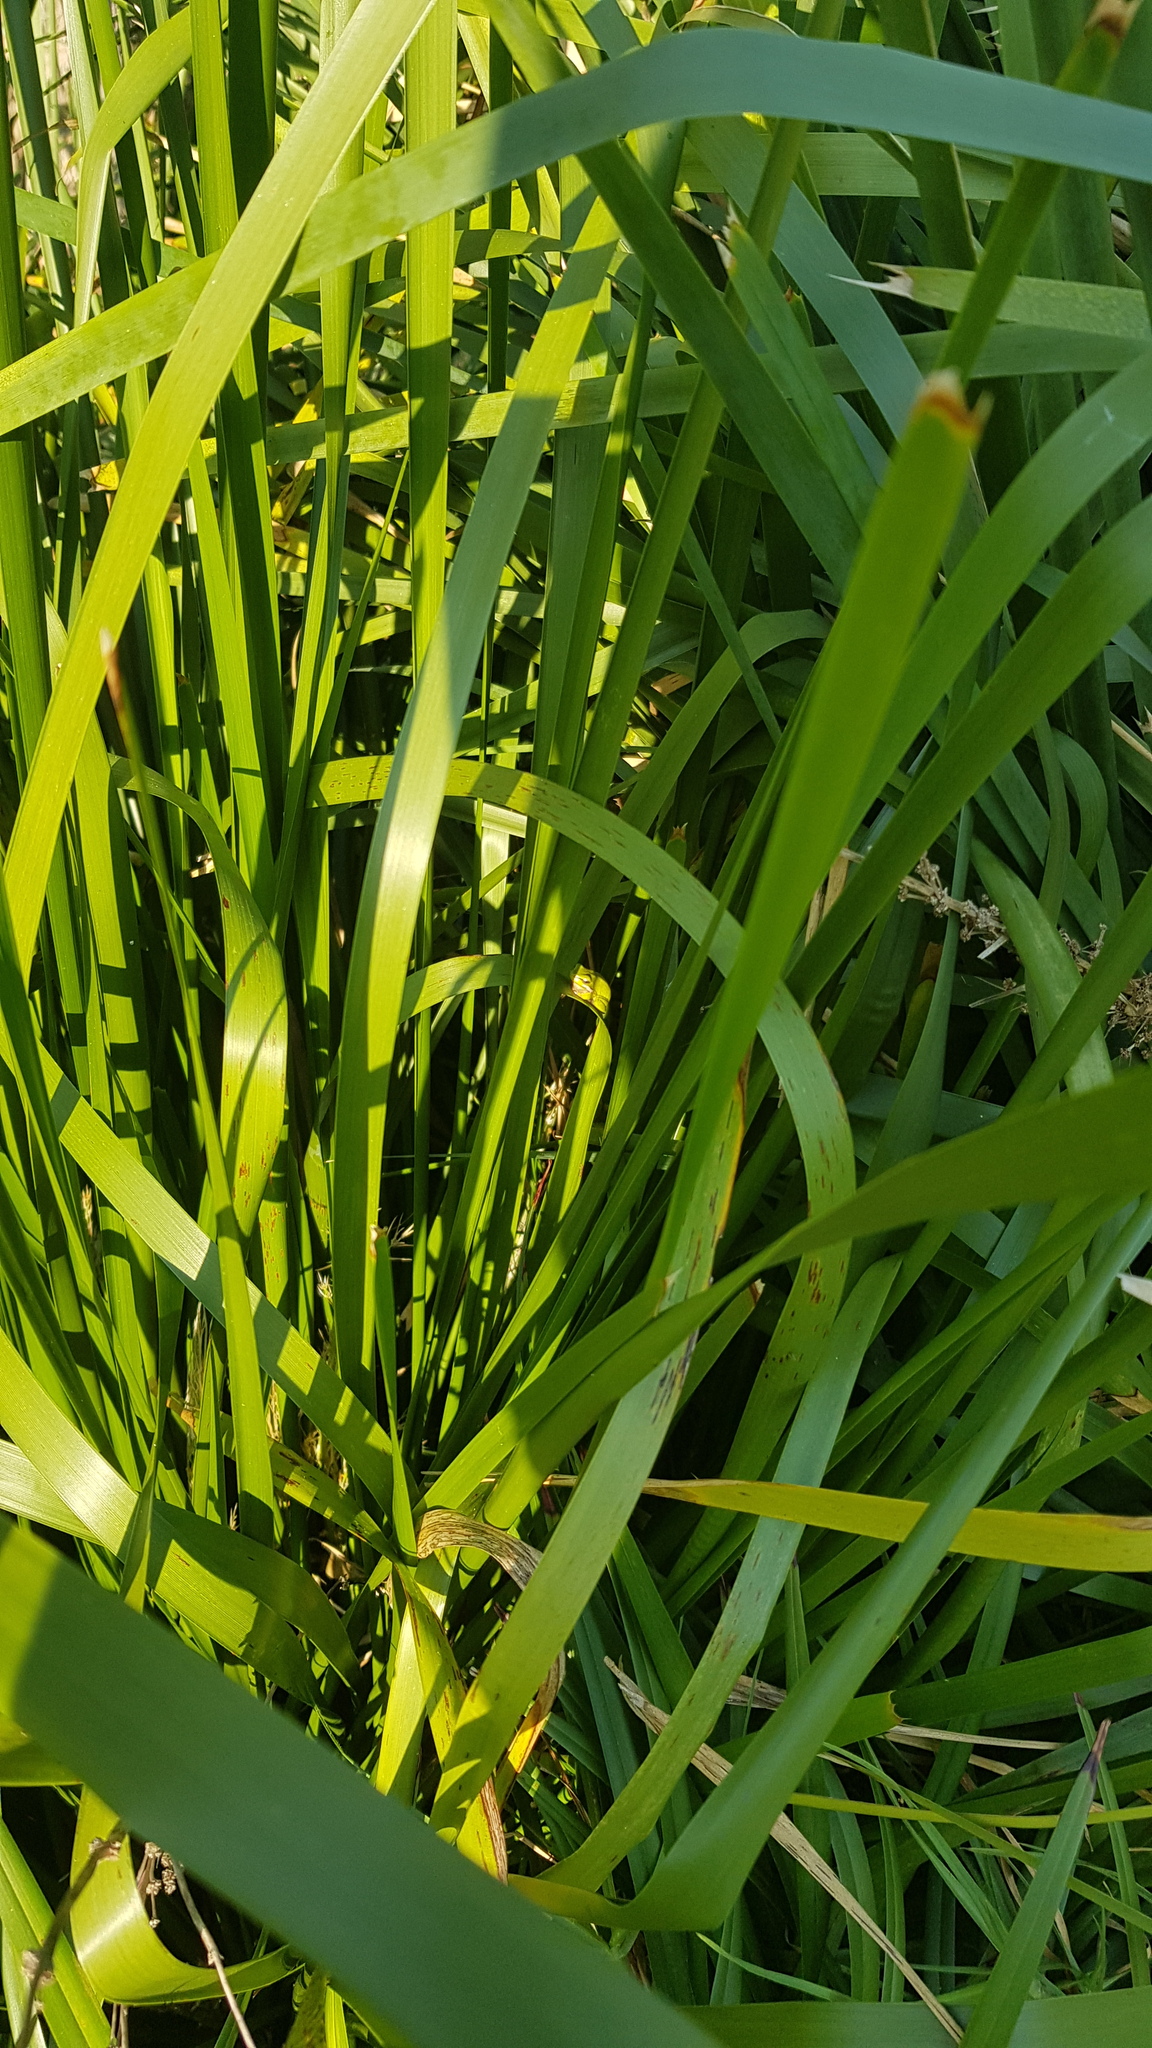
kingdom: Animalia
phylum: Chordata
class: Amphibia
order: Anura
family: Pelodryadidae
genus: Litoria
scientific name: Litoria fallax
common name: Eastern dwarf treefrog
